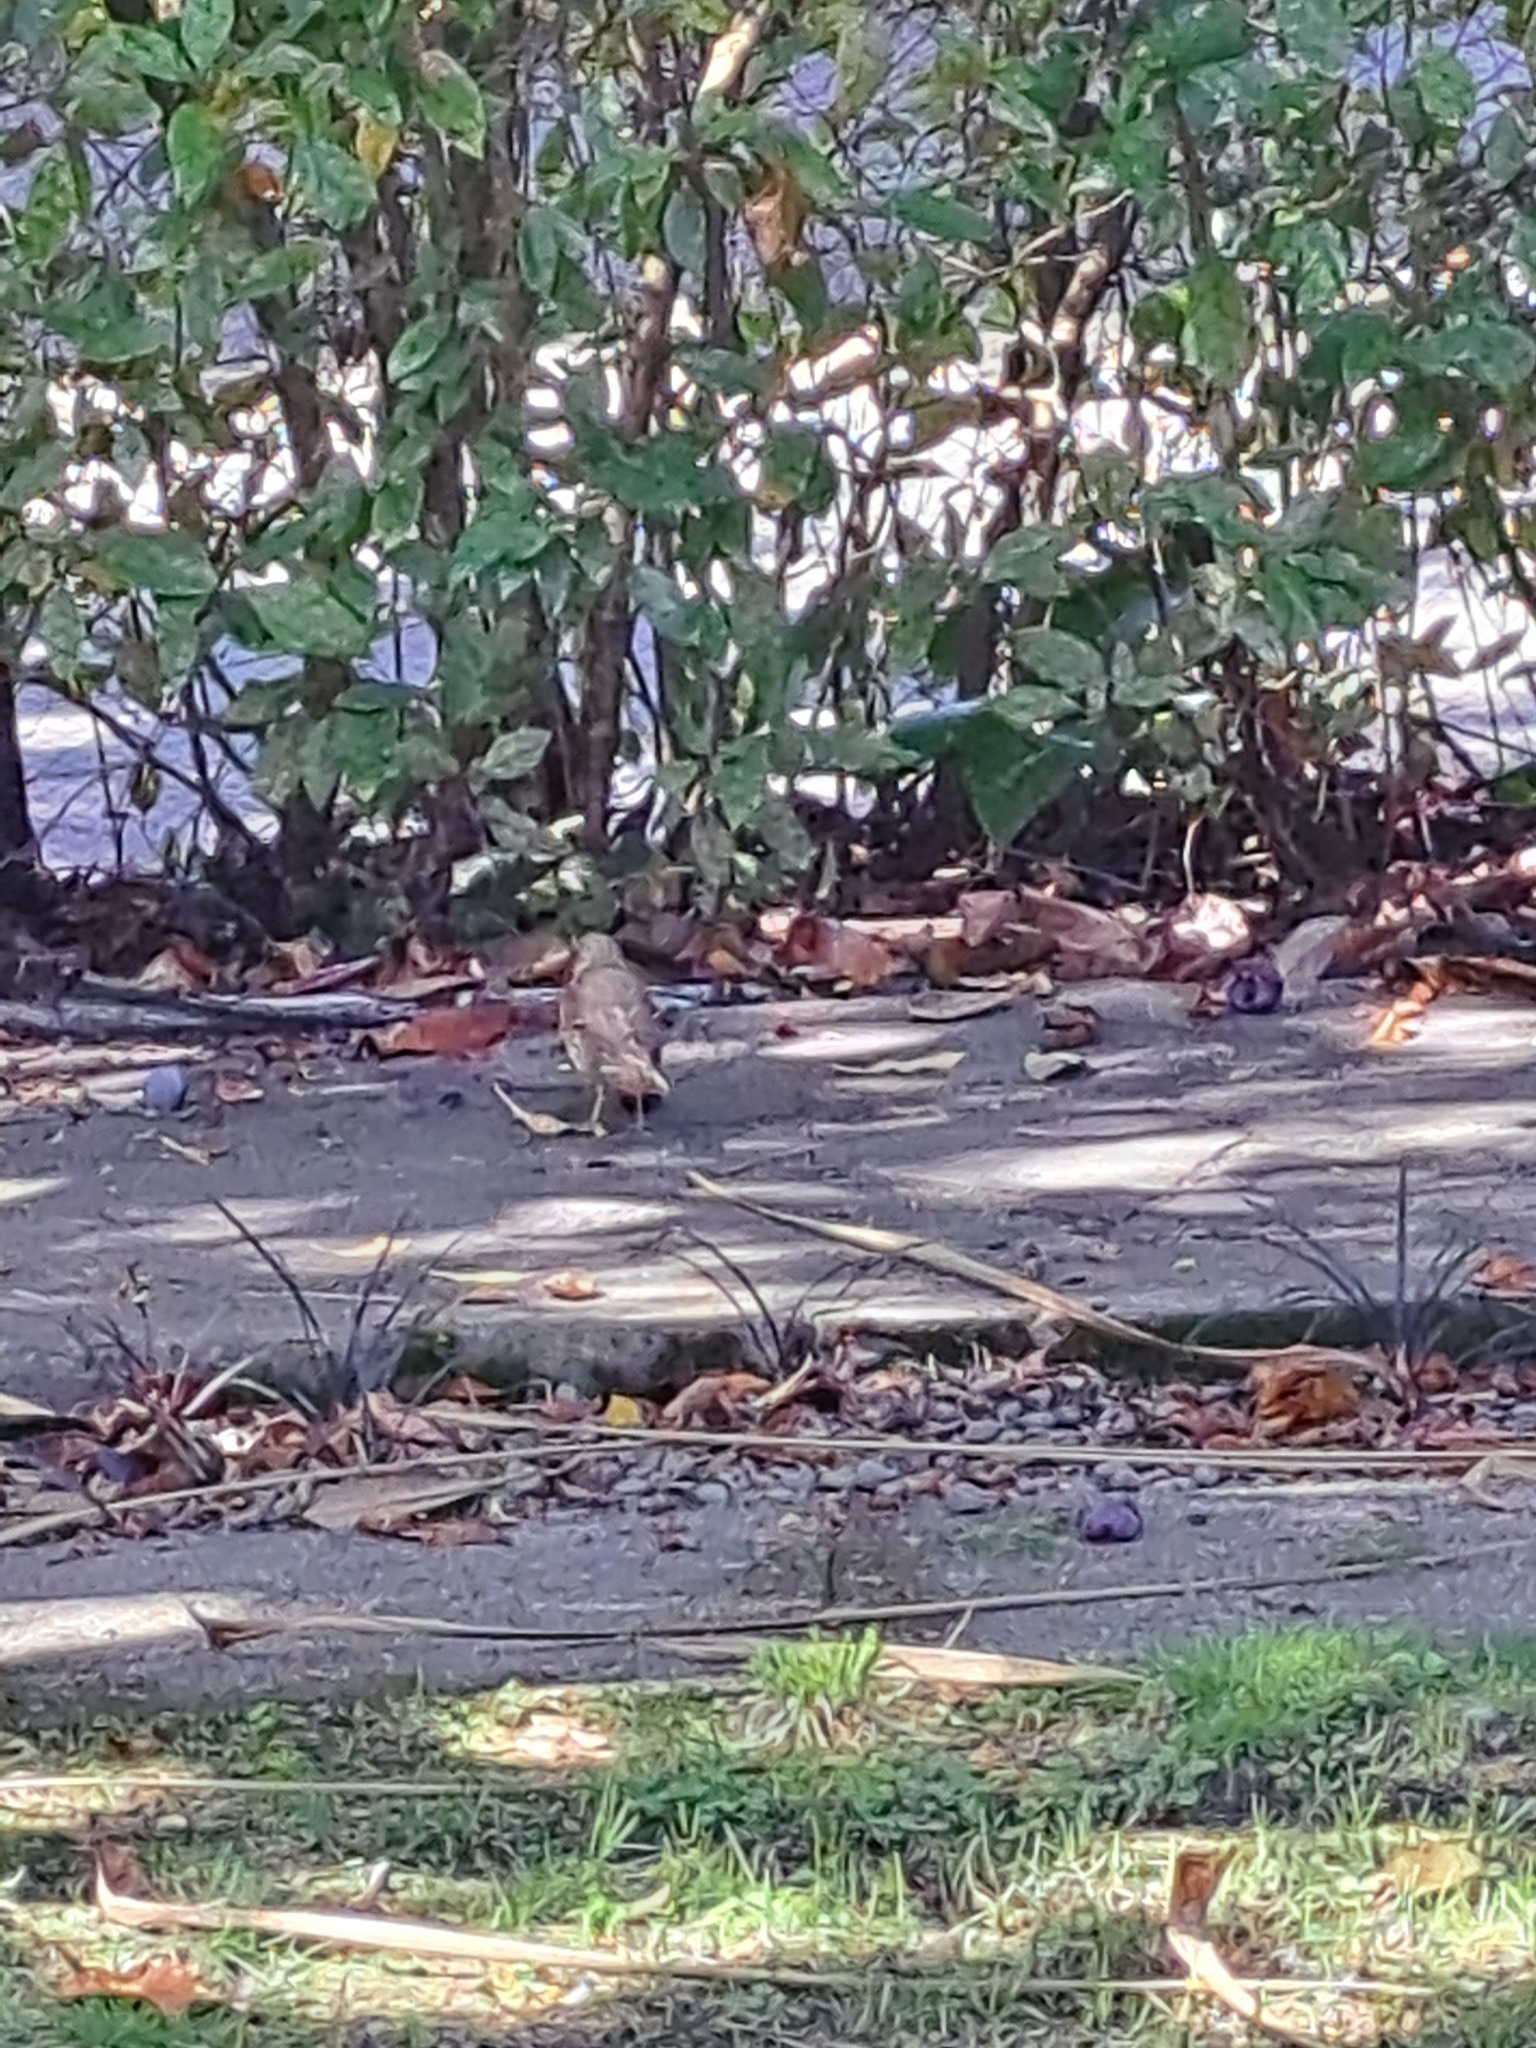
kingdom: Animalia
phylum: Chordata
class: Aves
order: Passeriformes
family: Turdidae
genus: Turdus
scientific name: Turdus philomelos
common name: Song thrush
